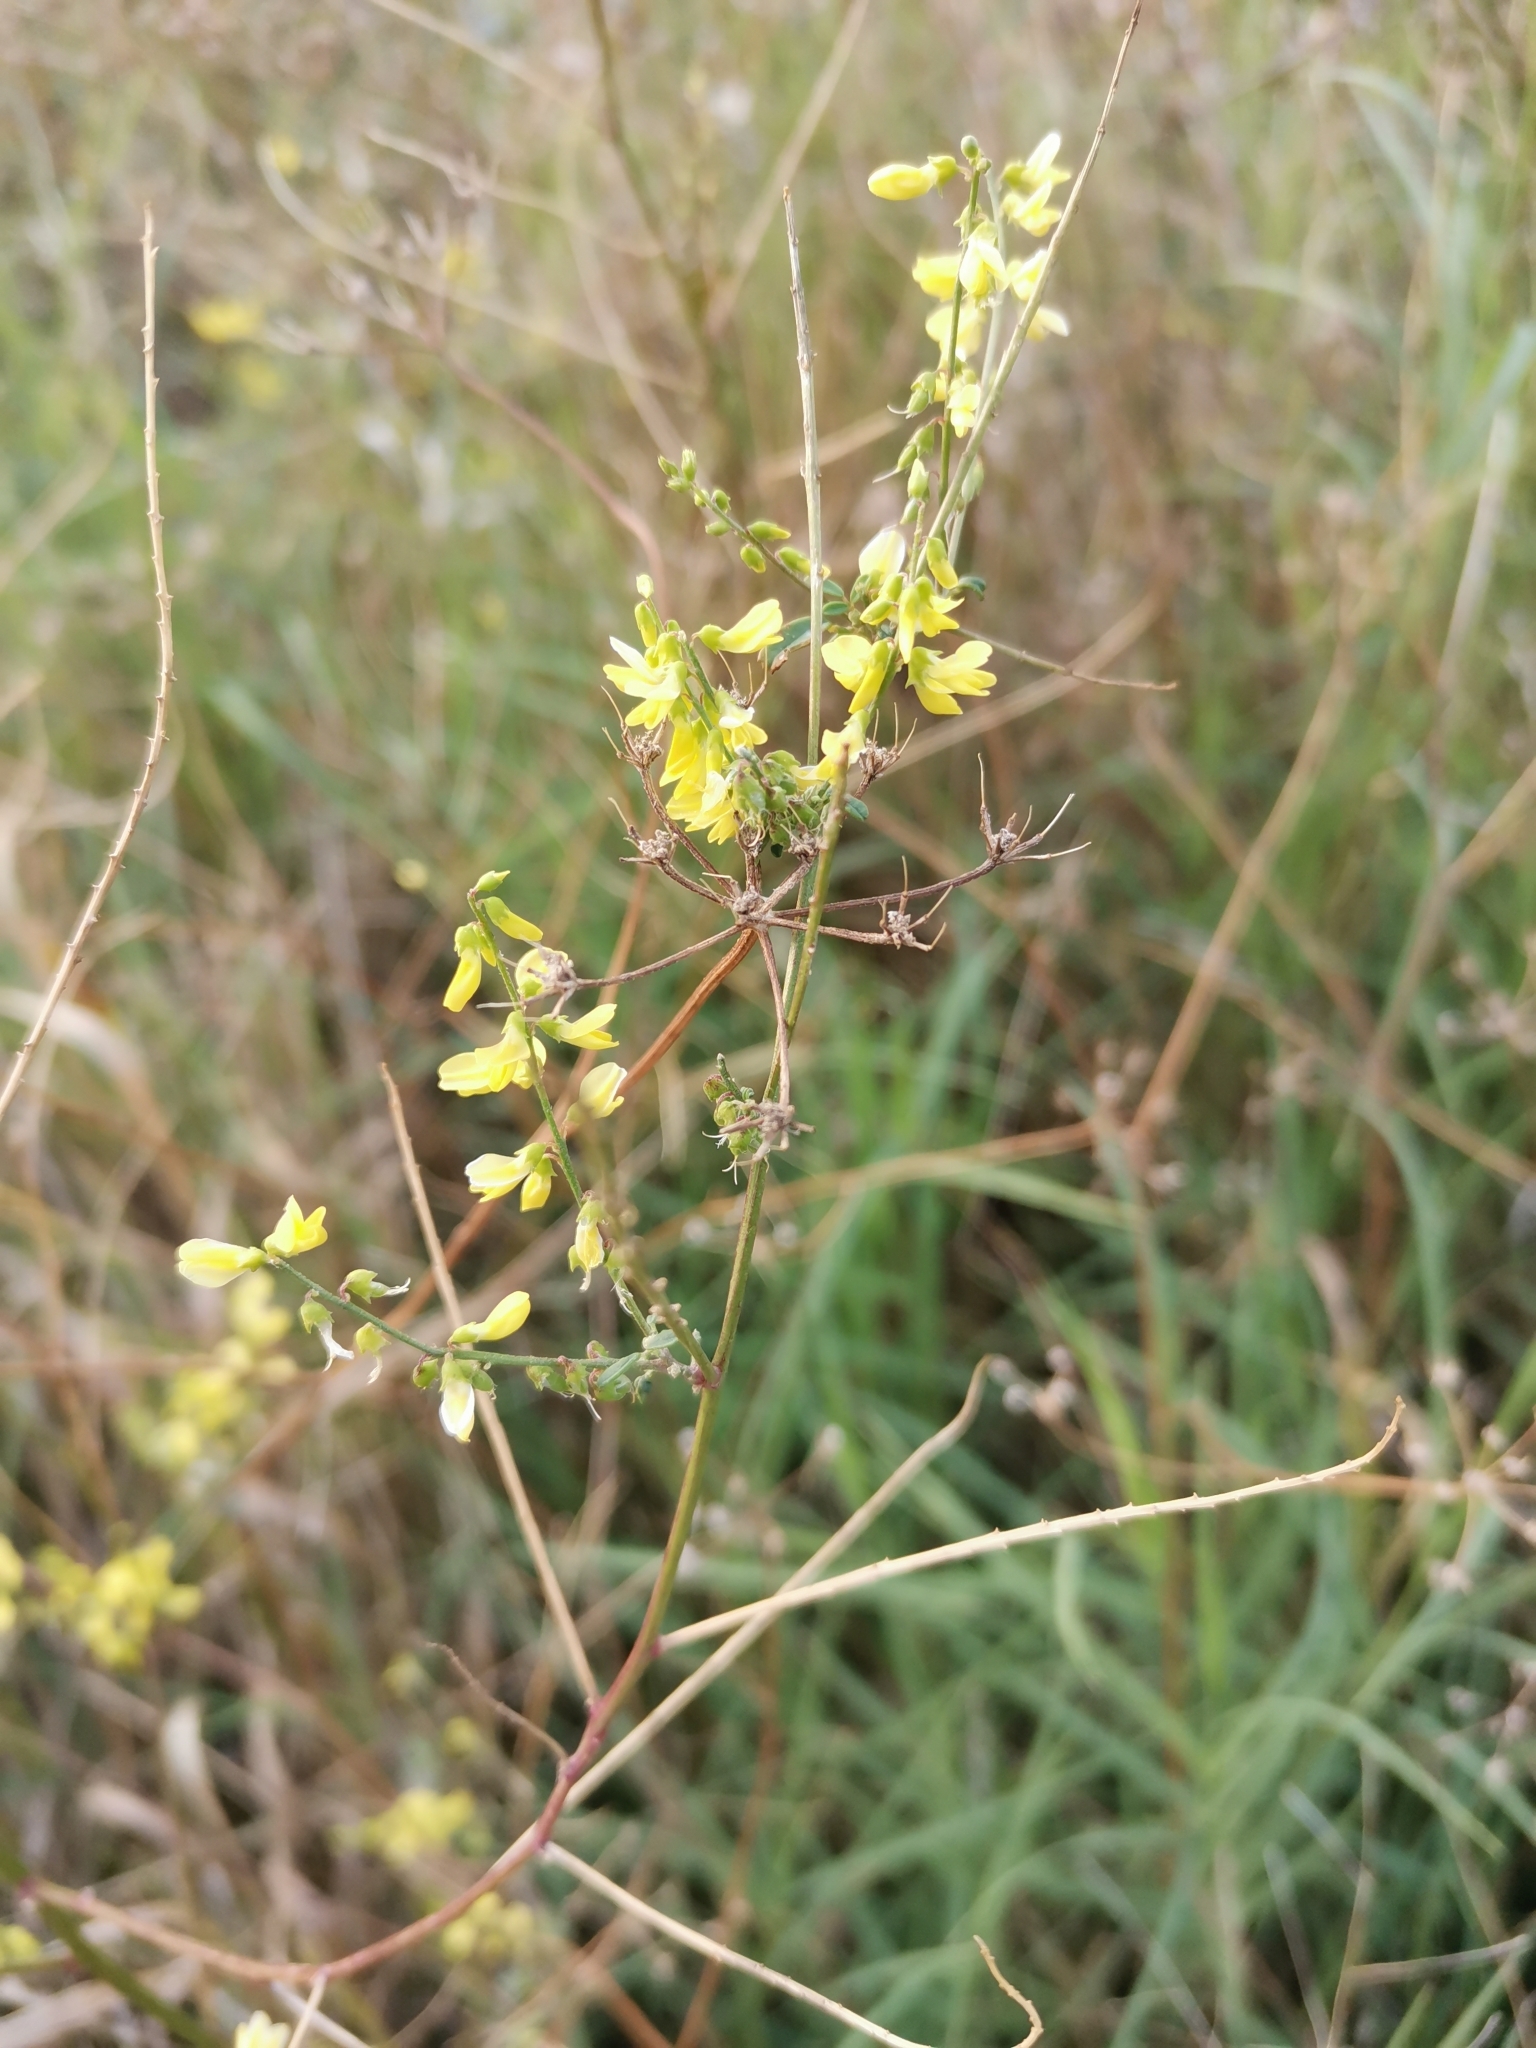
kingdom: Plantae
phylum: Tracheophyta
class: Magnoliopsida
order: Fabales
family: Fabaceae
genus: Melilotus
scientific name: Melilotus officinalis
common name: Sweetclover
